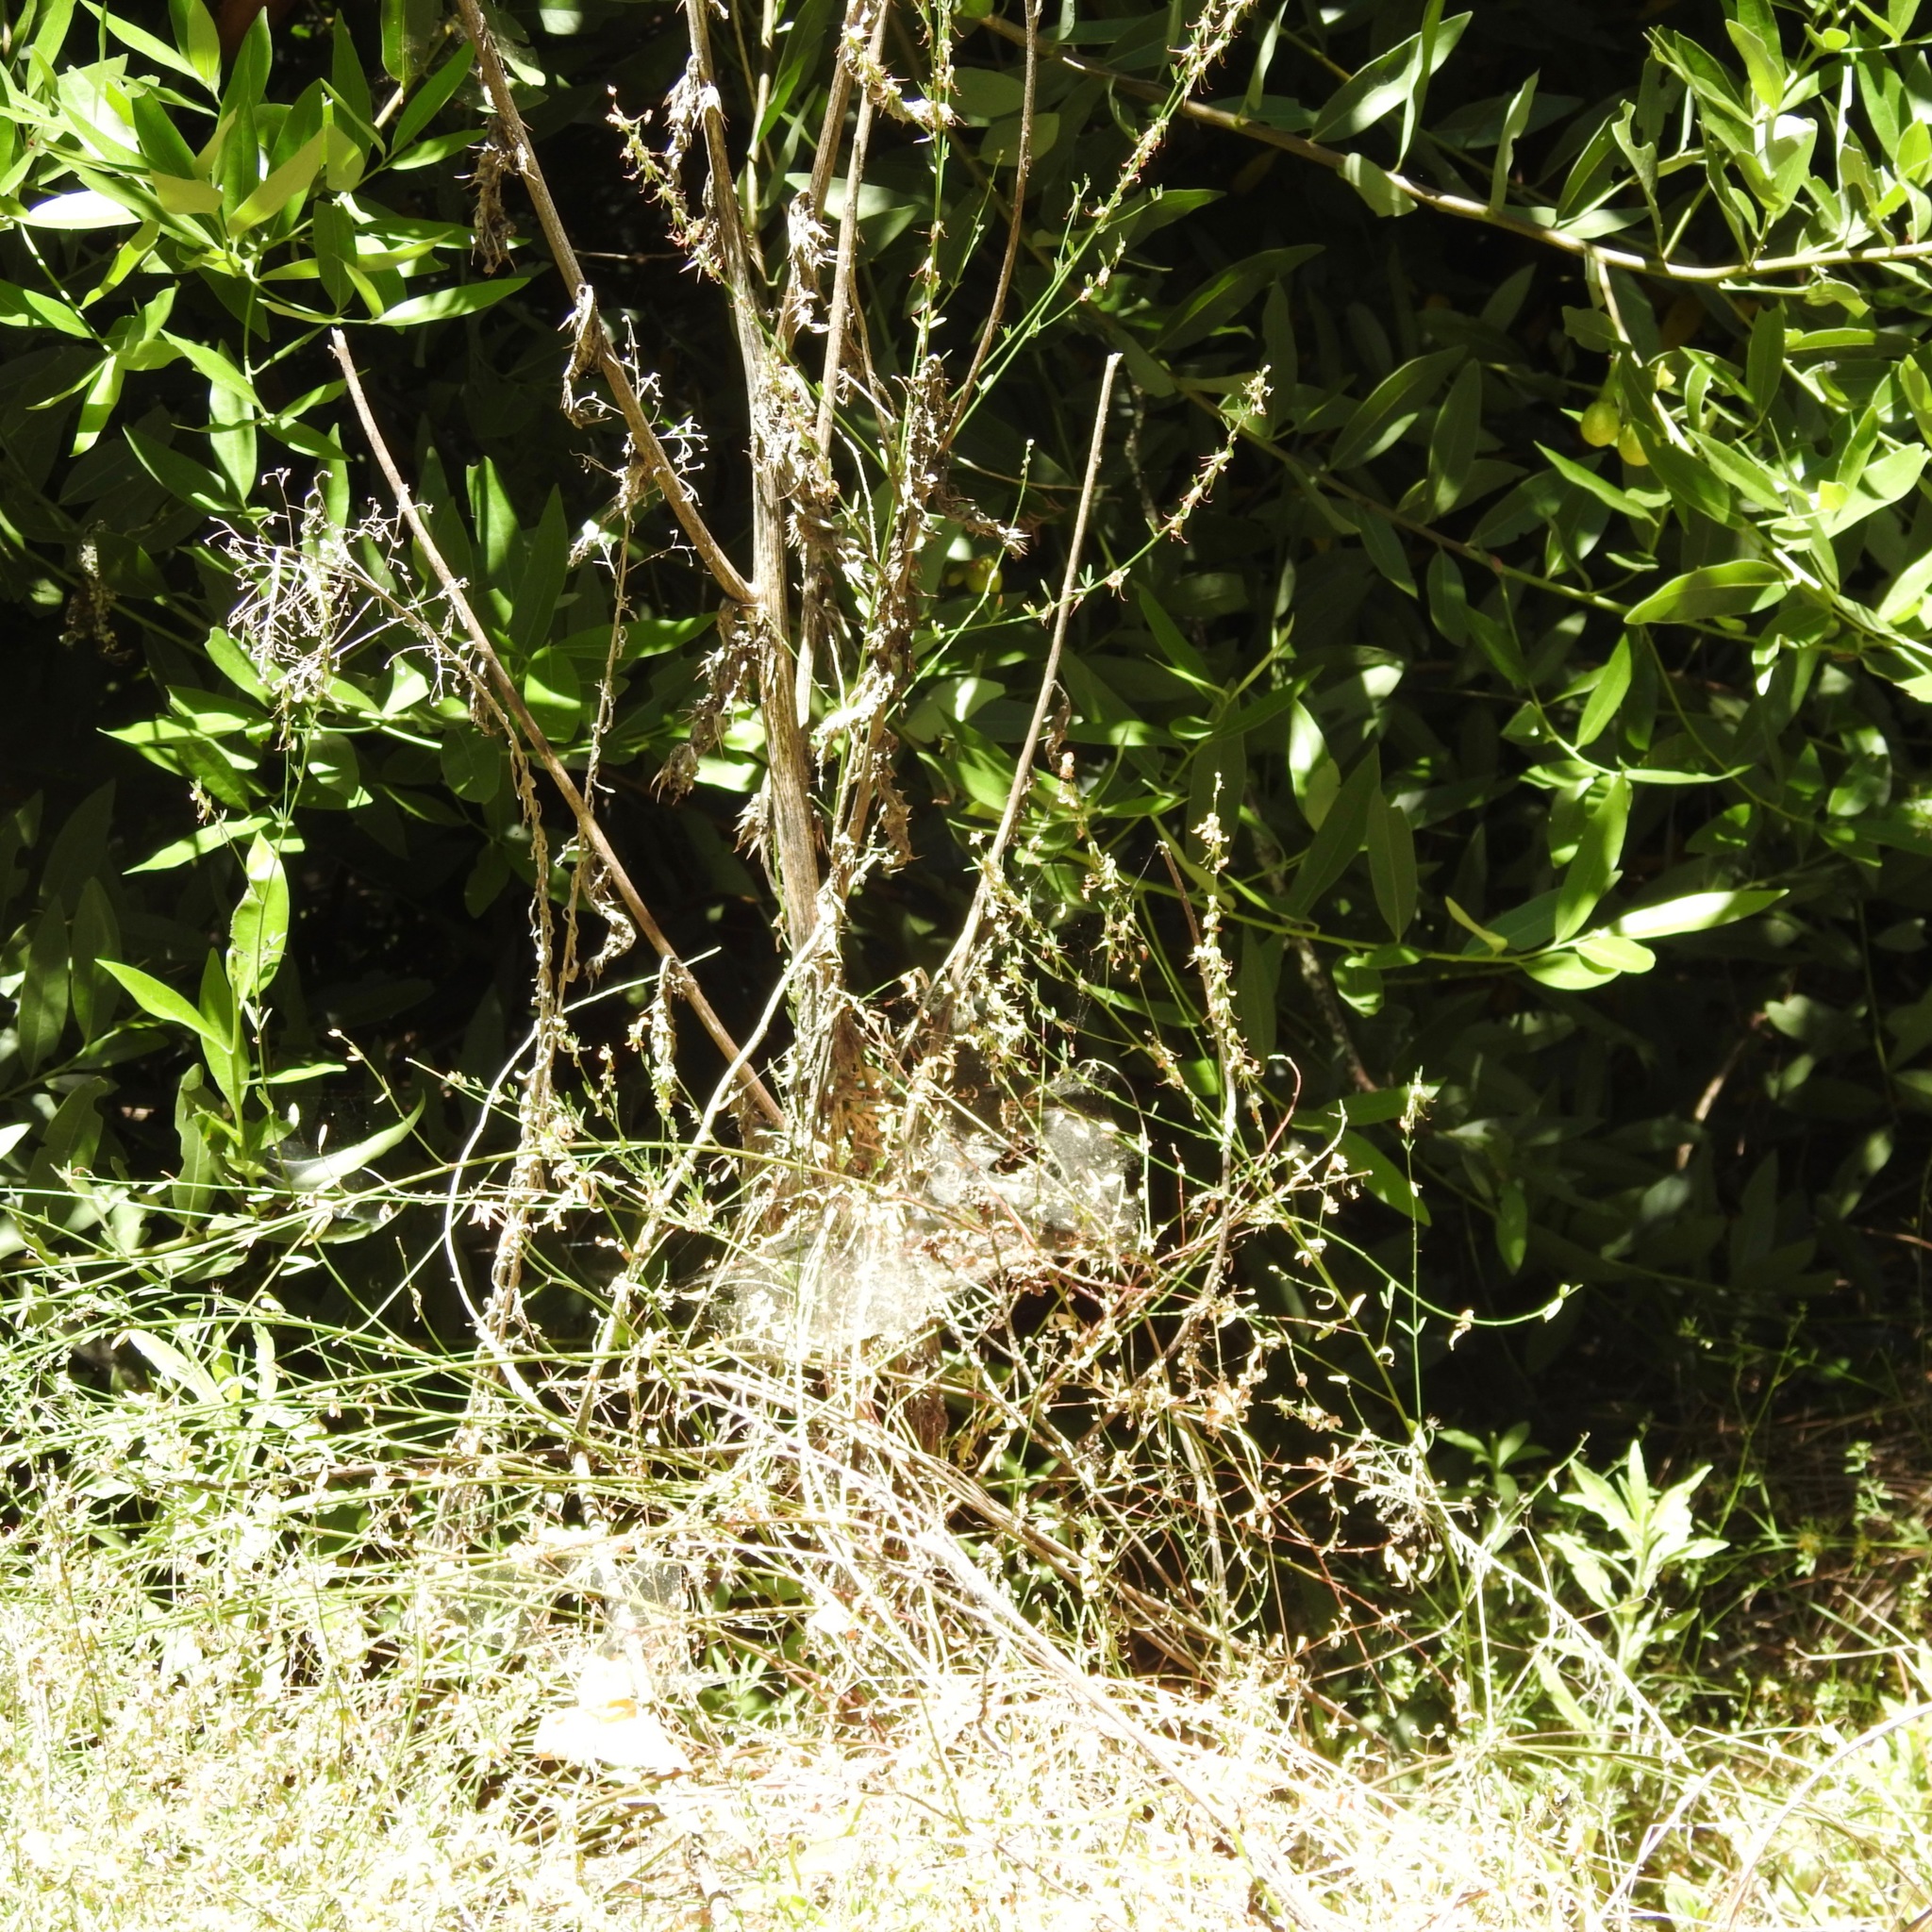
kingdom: Plantae
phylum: Tracheophyta
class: Magnoliopsida
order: Laurales
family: Lauraceae
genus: Umbellularia
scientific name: Umbellularia californica
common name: California bay
